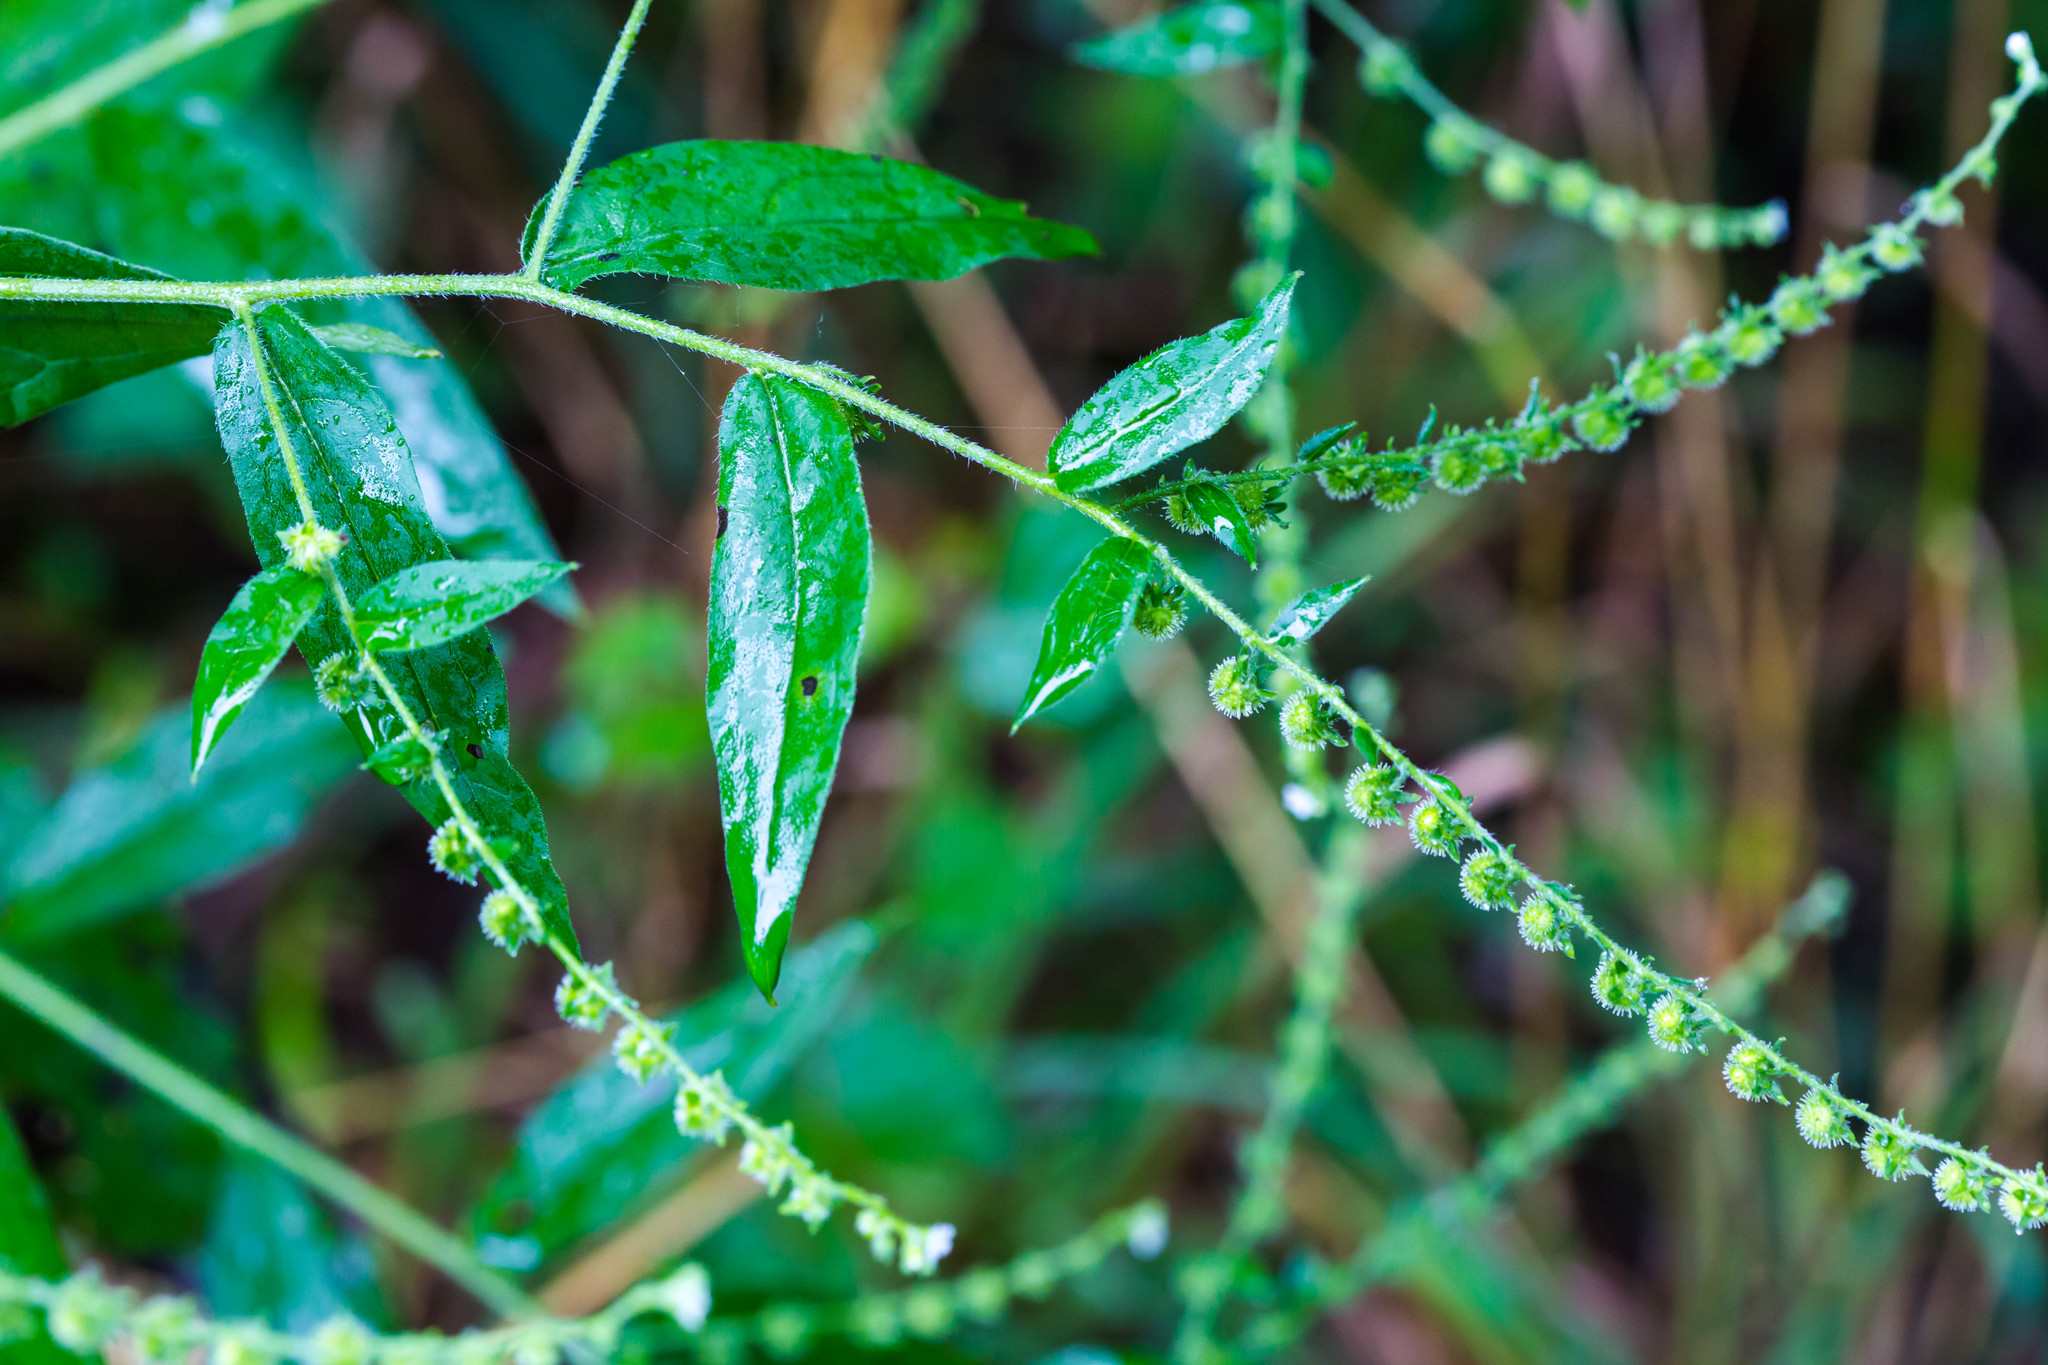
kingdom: Plantae
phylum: Tracheophyta
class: Magnoliopsida
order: Boraginales
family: Boraginaceae
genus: Hackelia
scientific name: Hackelia virginiana
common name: Beggar's-lice
